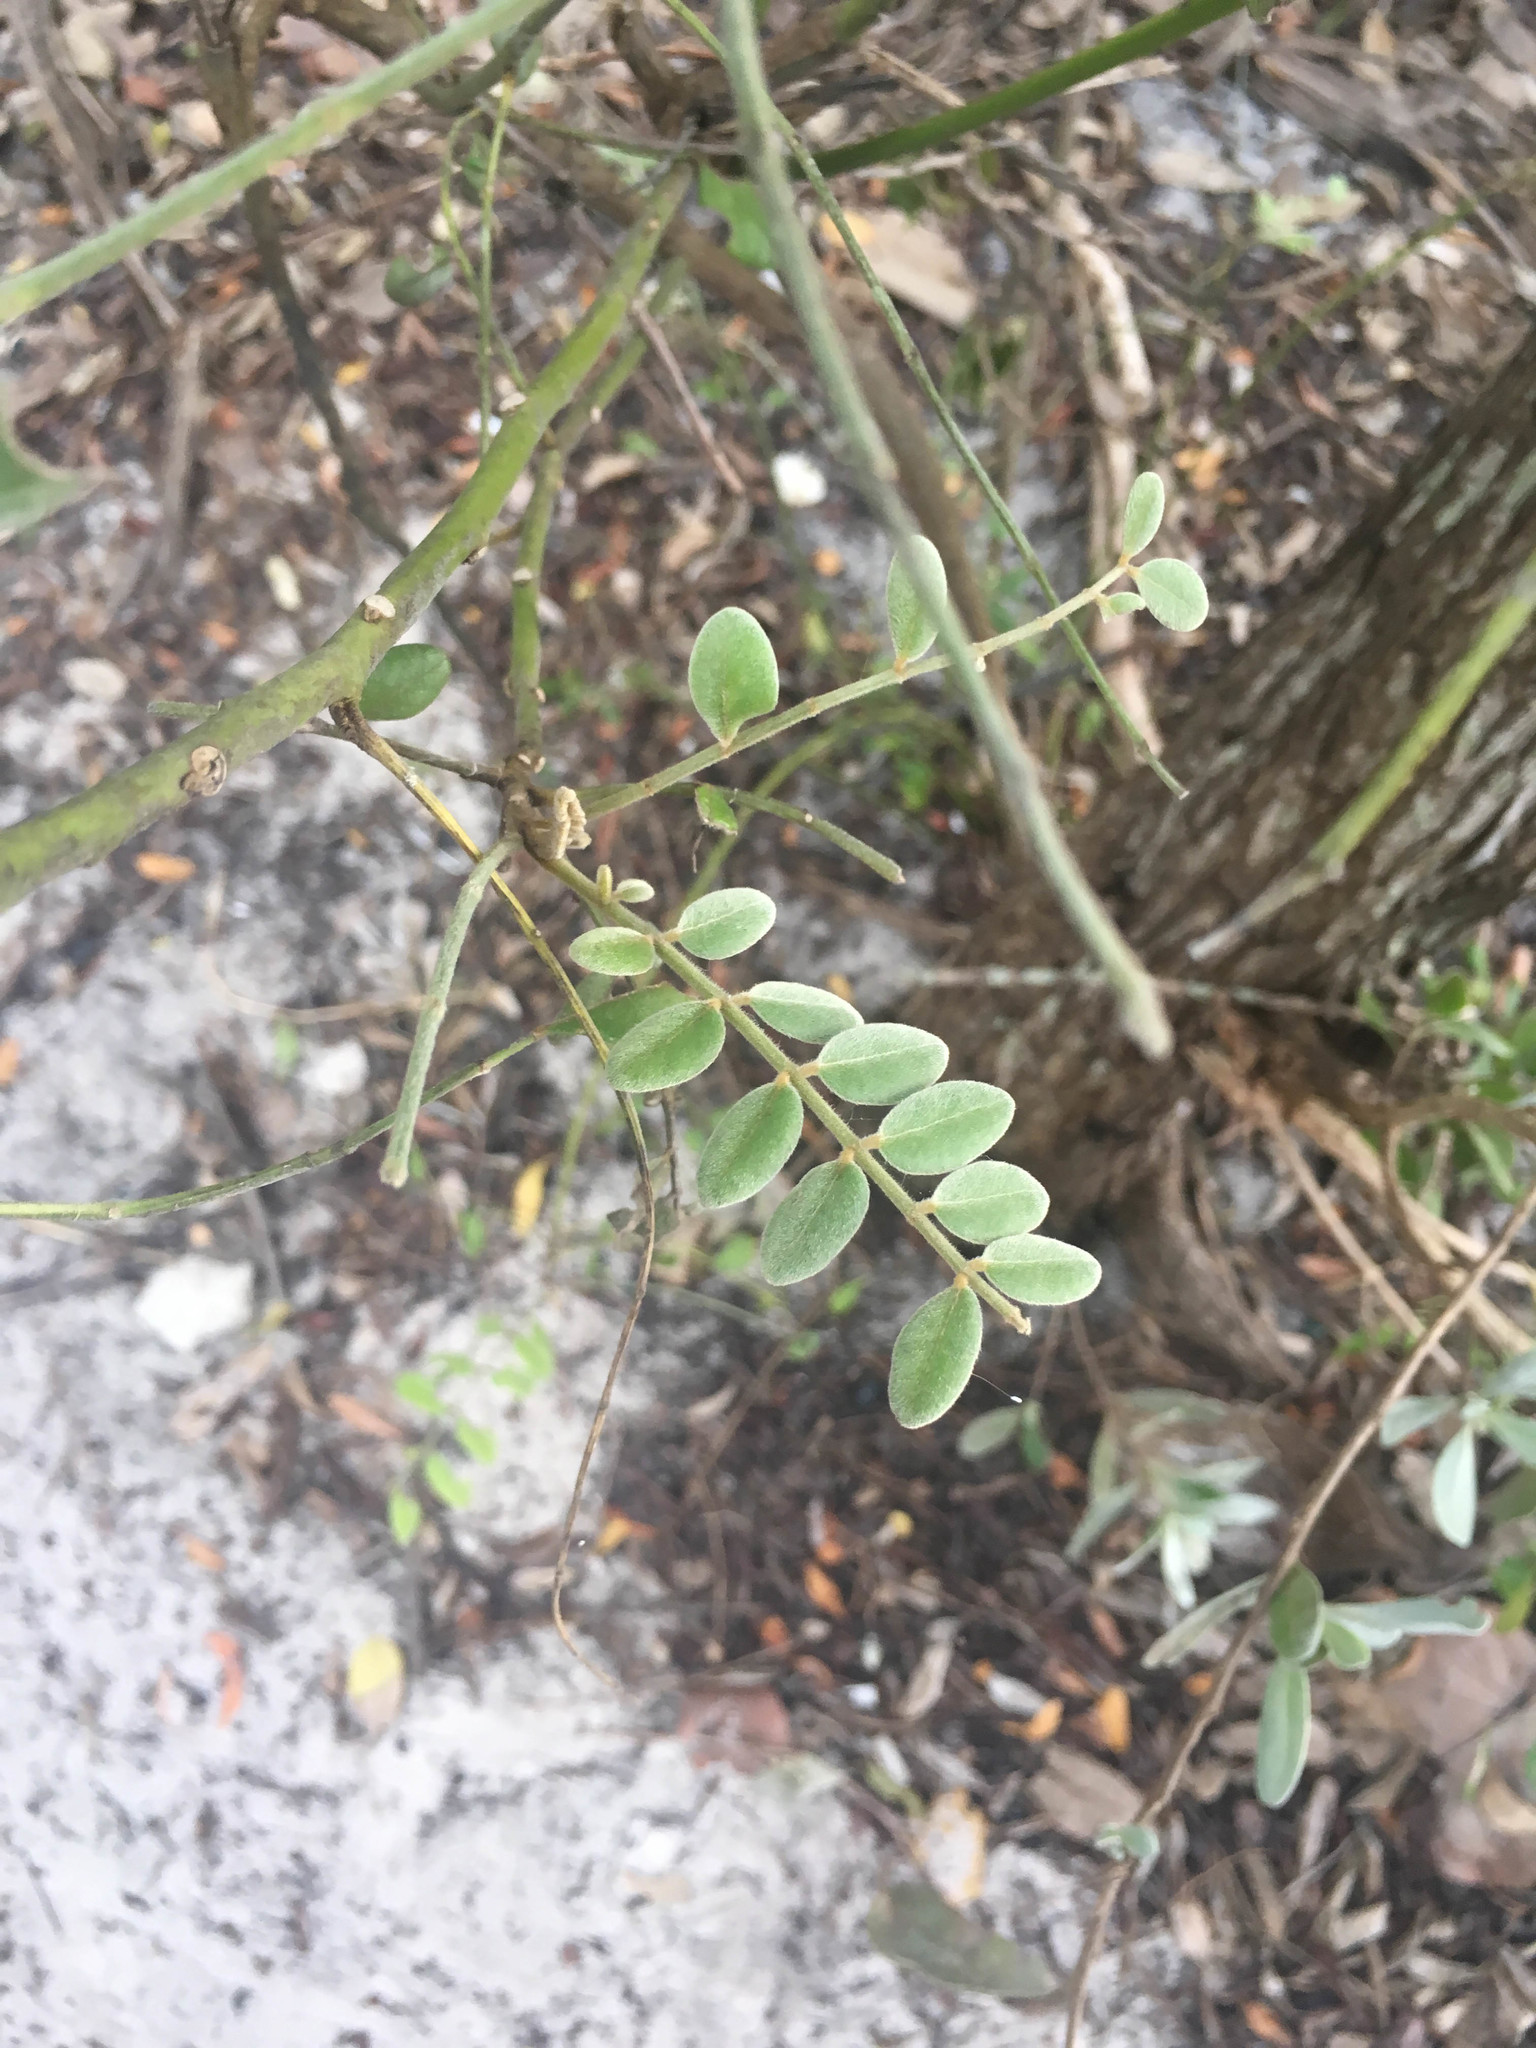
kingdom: Plantae
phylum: Tracheophyta
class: Magnoliopsida
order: Fabales
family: Fabaceae
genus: Sophora
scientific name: Sophora tomentosa
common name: Yellow necklacepod
